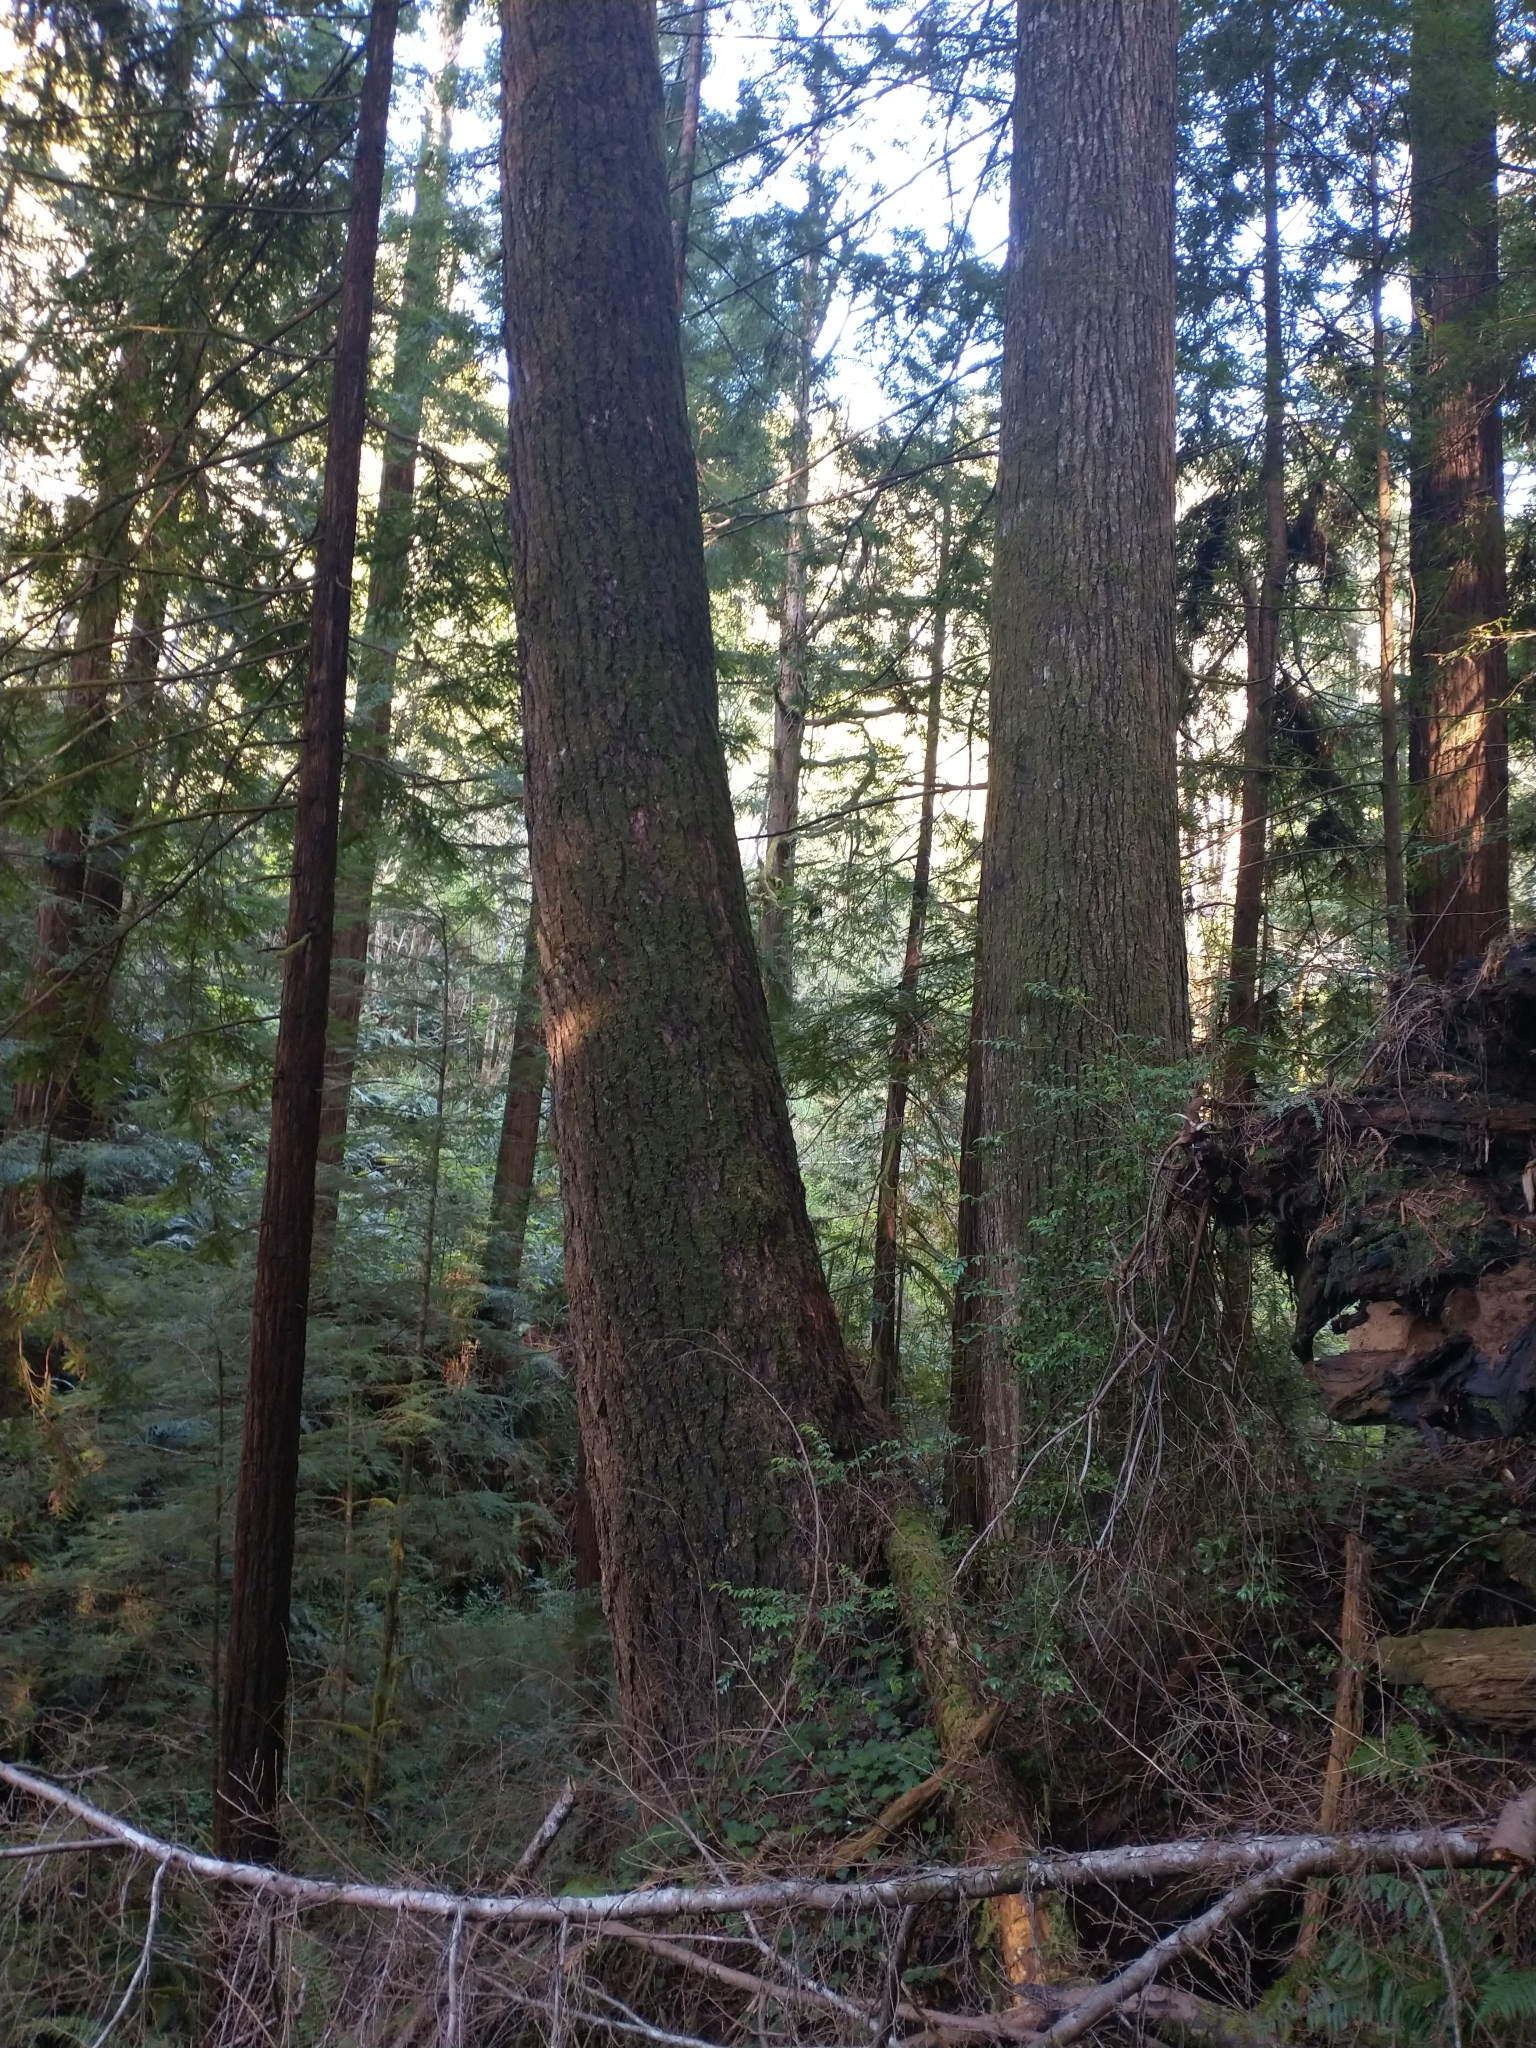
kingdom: Plantae
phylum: Tracheophyta
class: Pinopsida
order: Pinales
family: Pinaceae
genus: Tsuga
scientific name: Tsuga heterophylla
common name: Western hemlock
